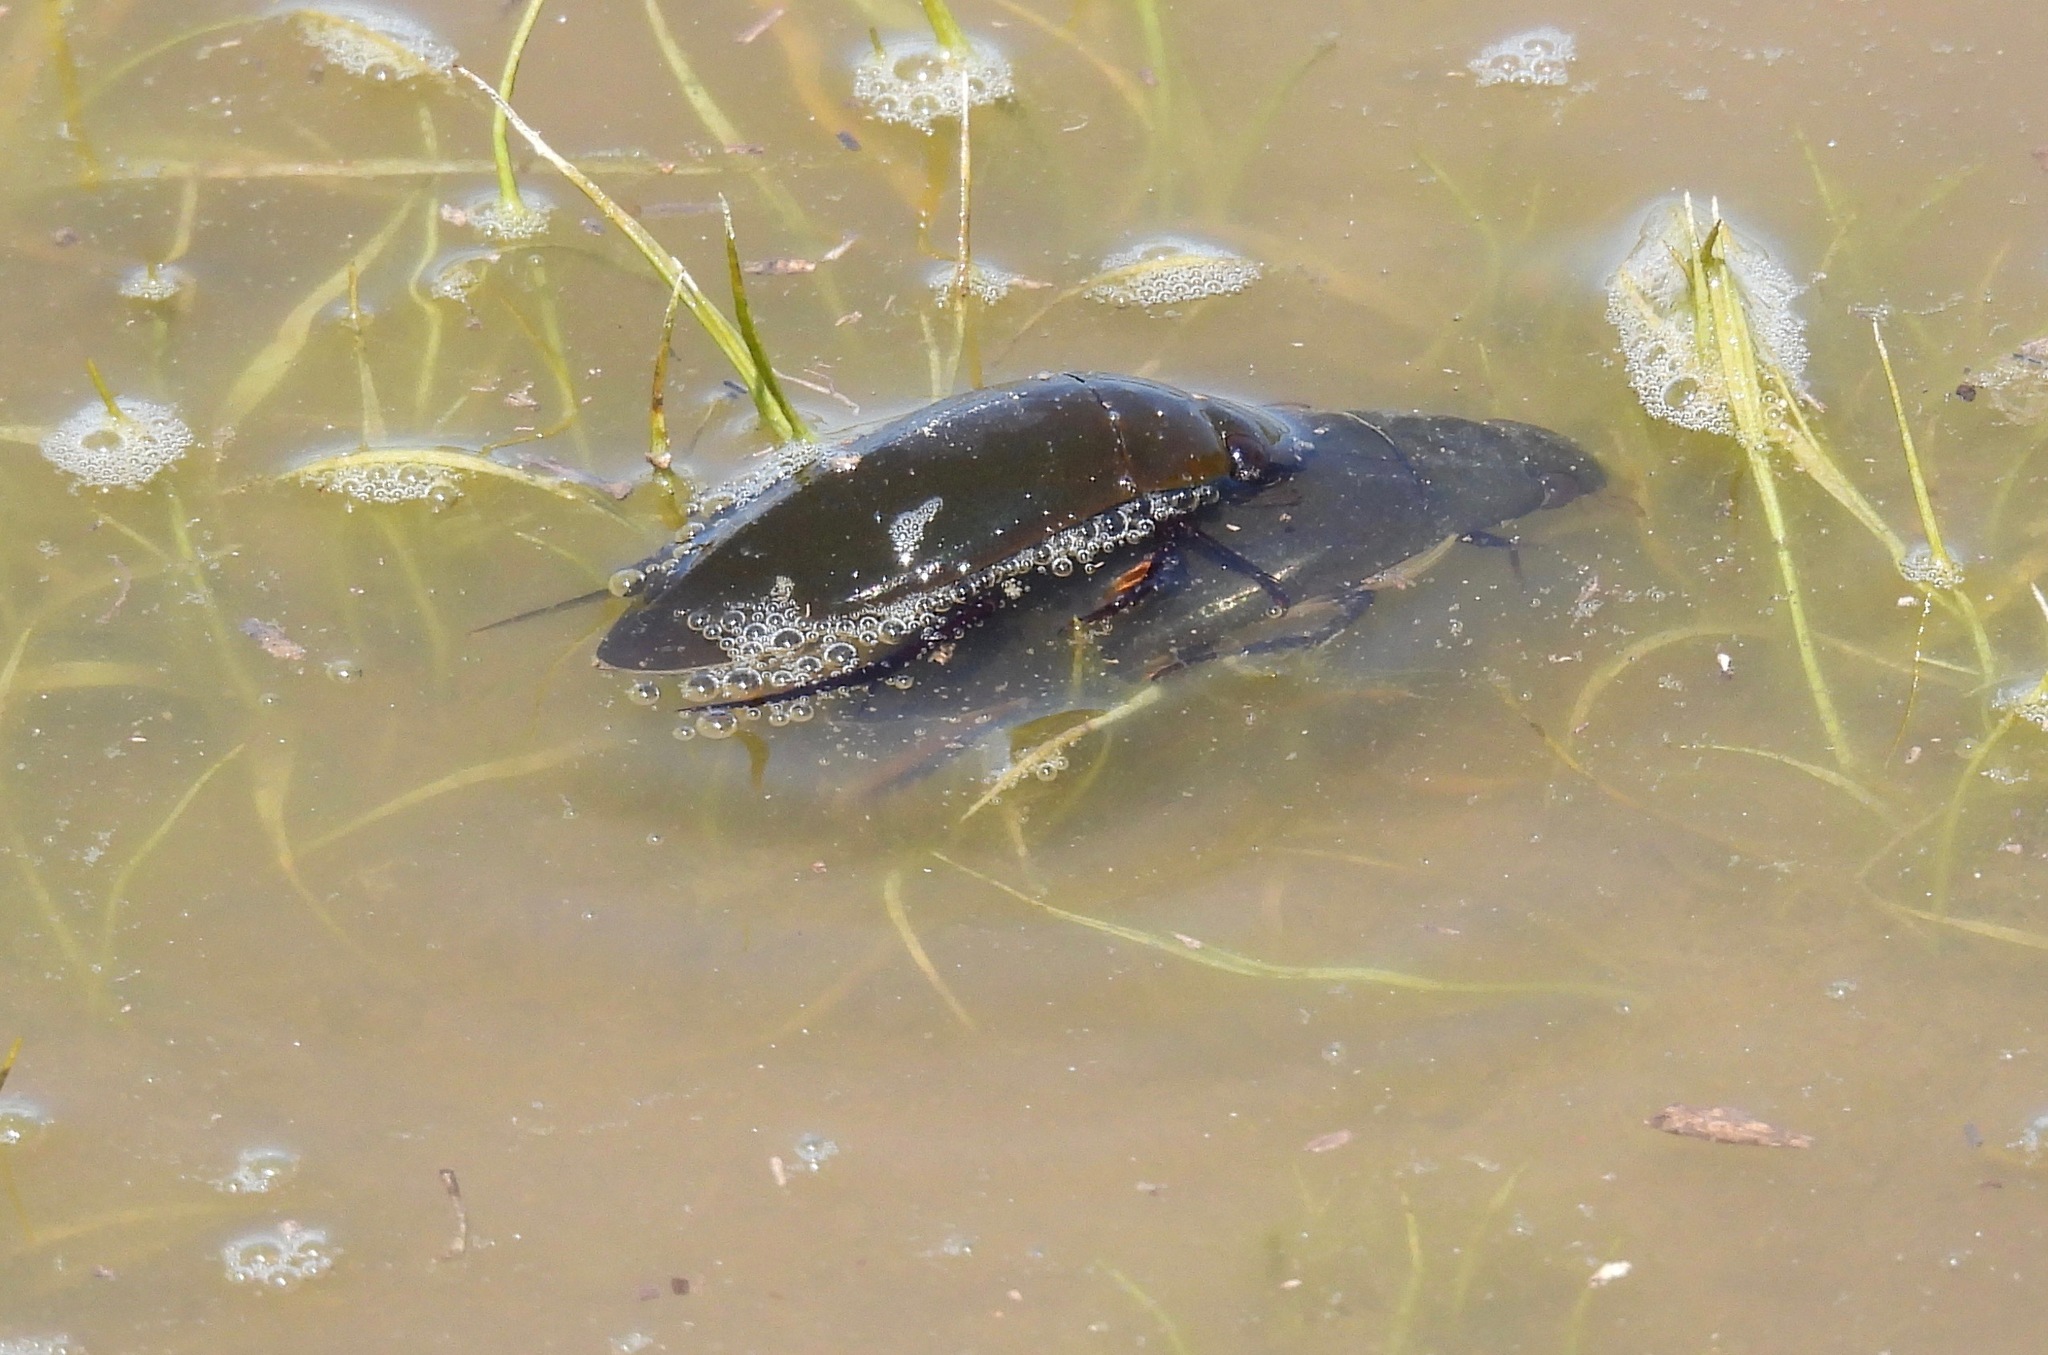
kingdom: Animalia
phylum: Arthropoda
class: Insecta
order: Coleoptera
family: Hydrophilidae
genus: Hydrophilus
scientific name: Hydrophilus triangularis
